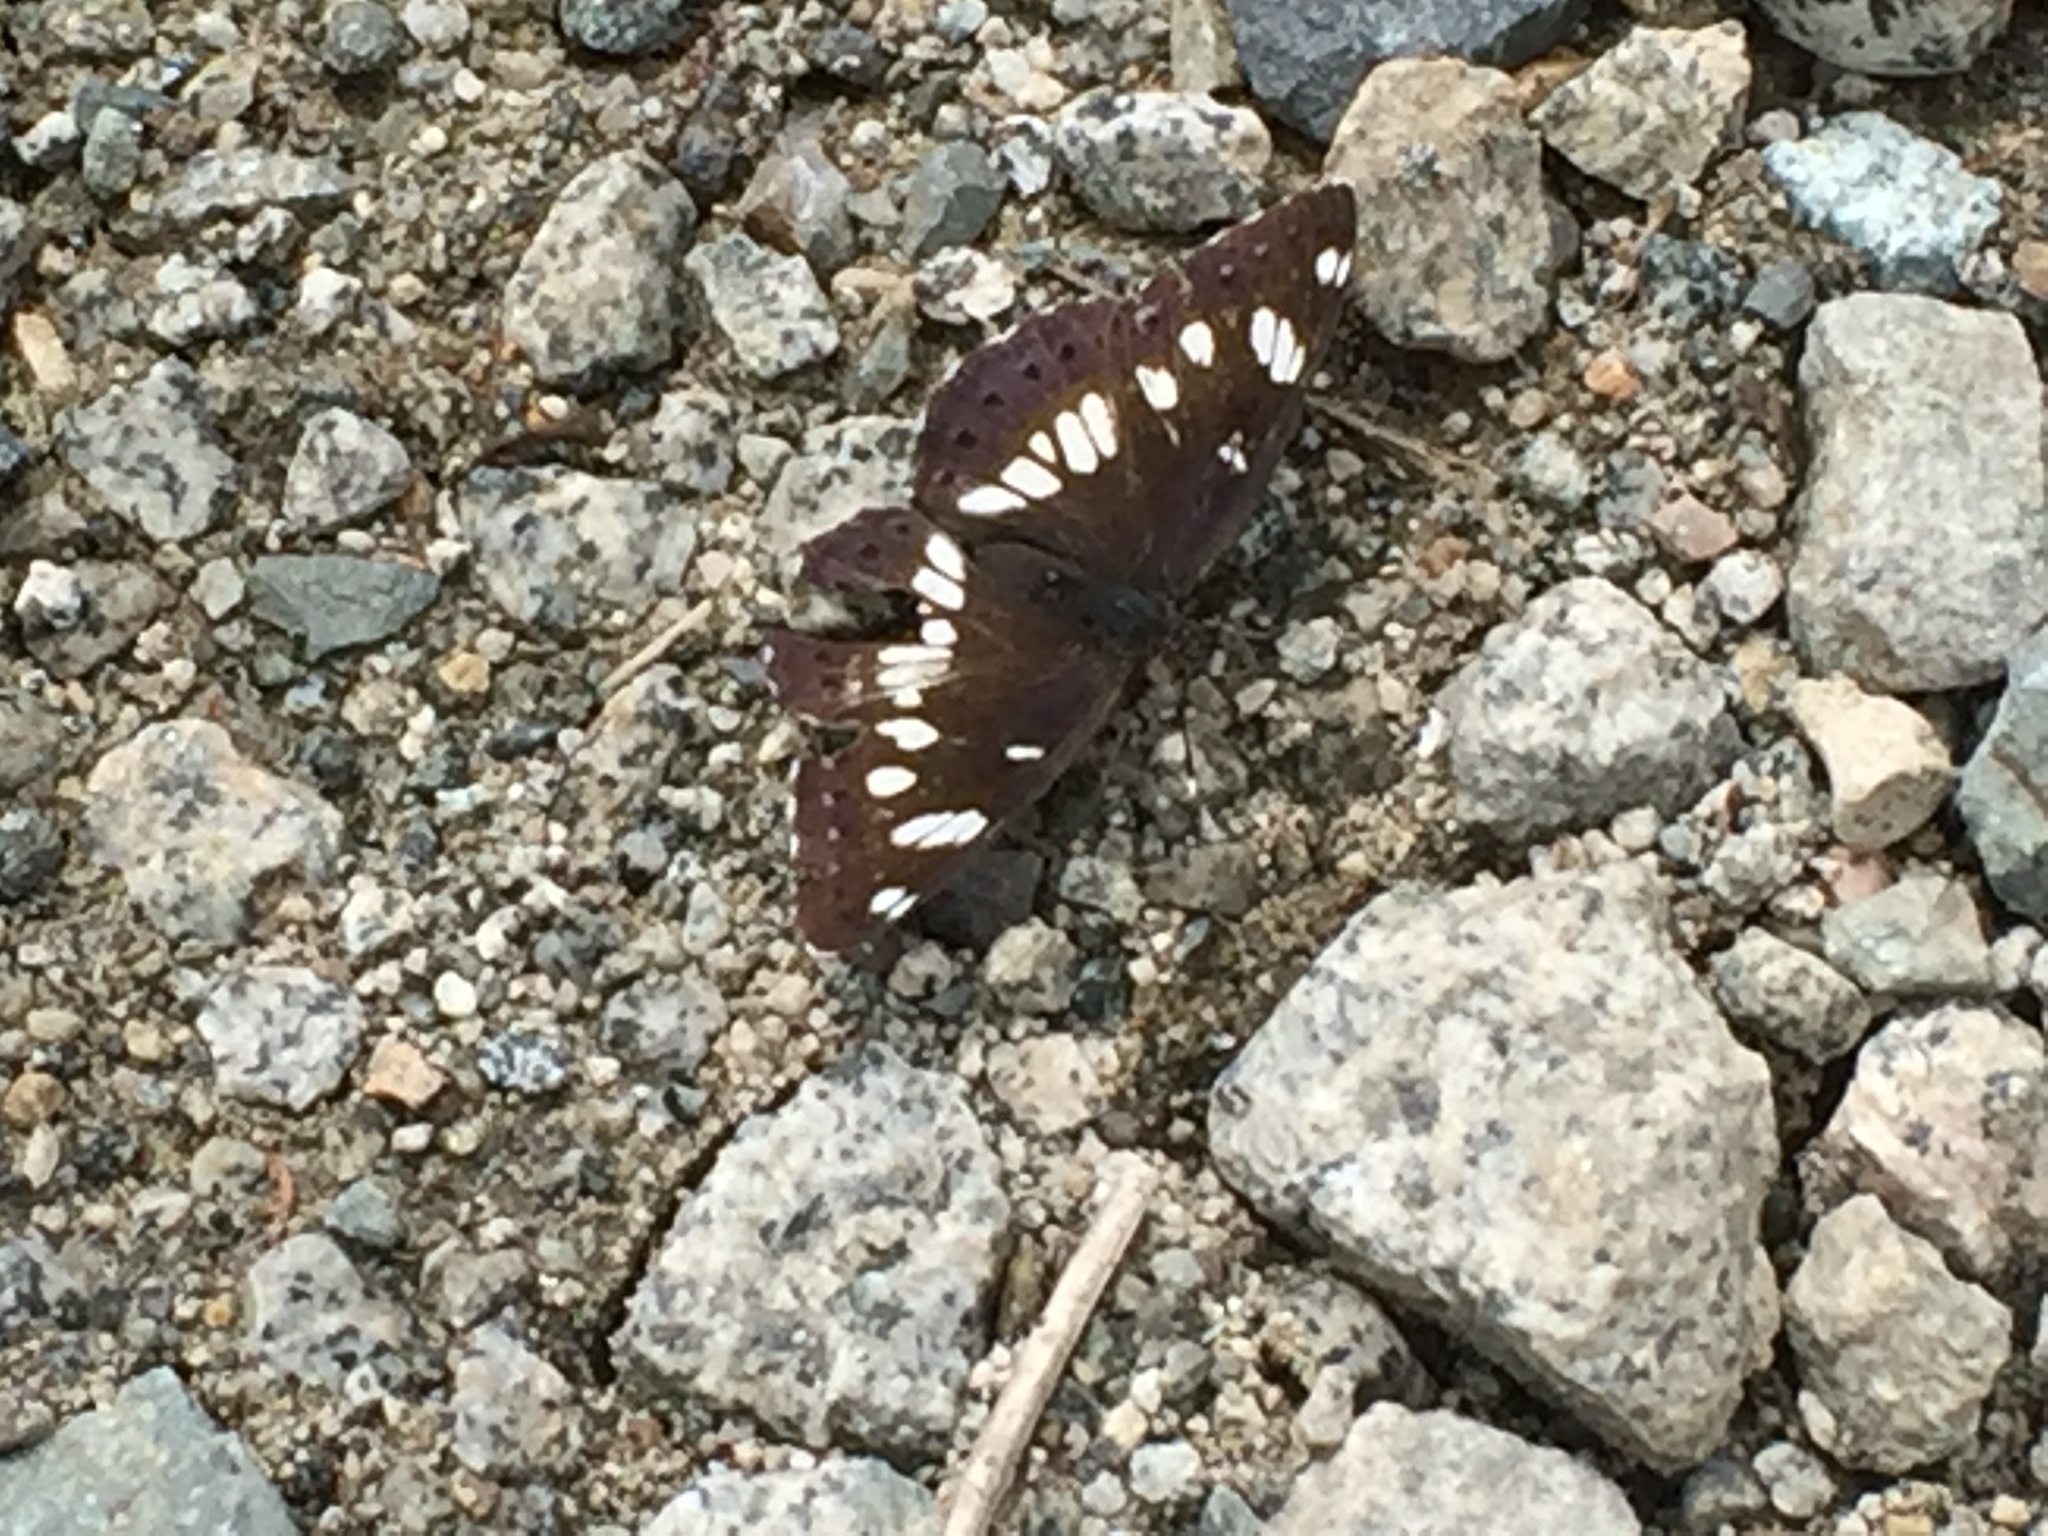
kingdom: Animalia
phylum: Arthropoda
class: Insecta
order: Lepidoptera
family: Nymphalidae
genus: Limenitis
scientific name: Limenitis reducta
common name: Southern white admiral
